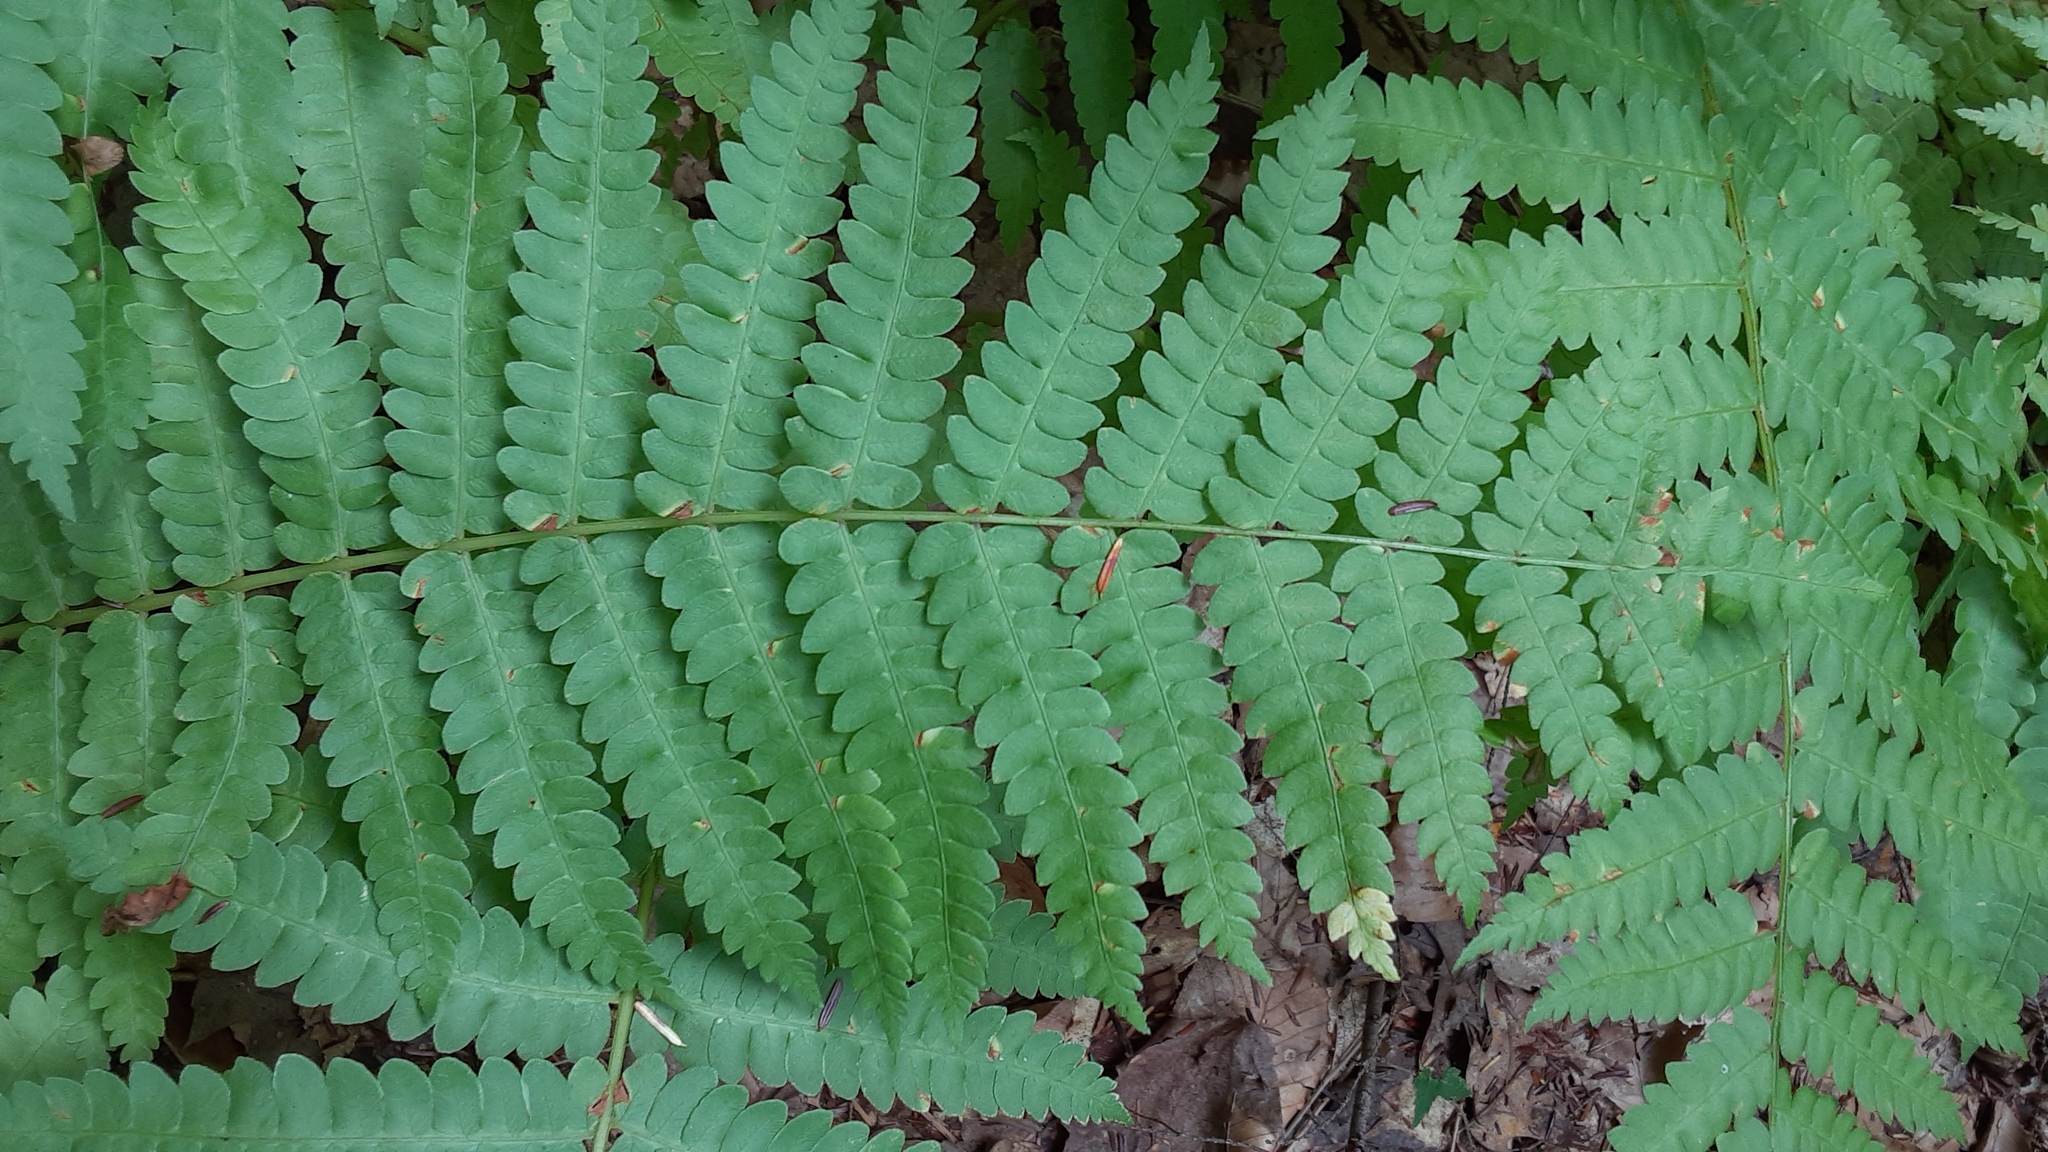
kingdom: Plantae
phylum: Tracheophyta
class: Polypodiopsida
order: Osmundales
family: Osmundaceae
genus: Osmundastrum
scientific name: Osmundastrum cinnamomeum
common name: Cinnamon fern
